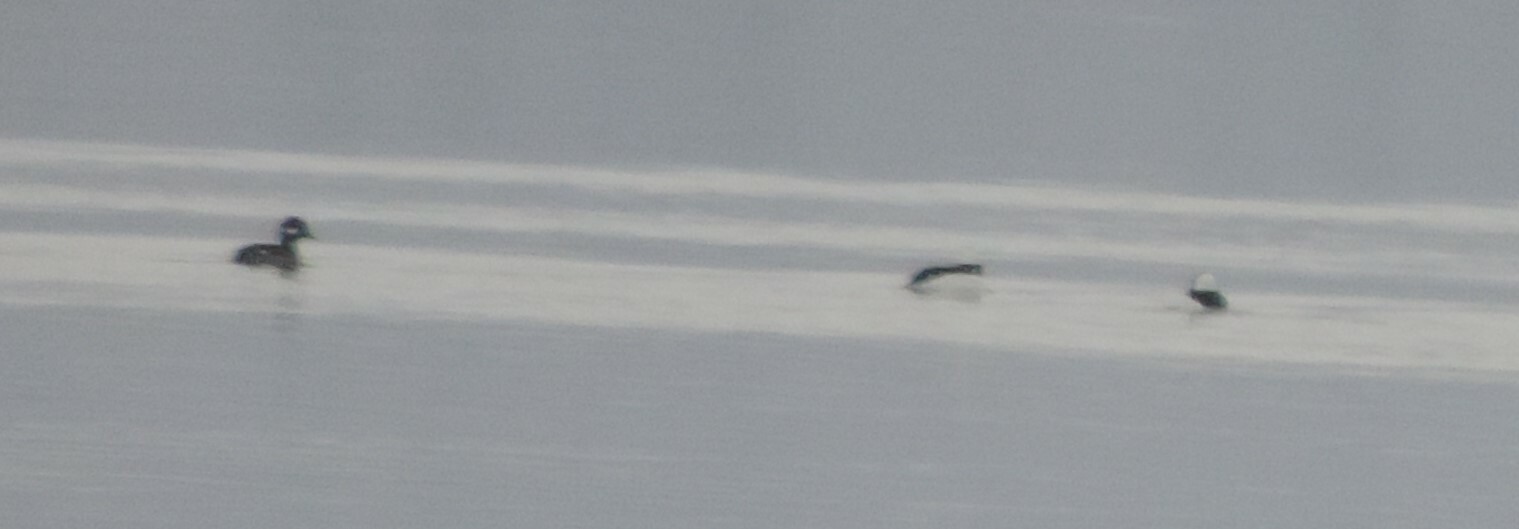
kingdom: Animalia
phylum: Chordata
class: Aves
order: Anseriformes
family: Anatidae
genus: Bucephala
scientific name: Bucephala albeola
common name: Bufflehead
